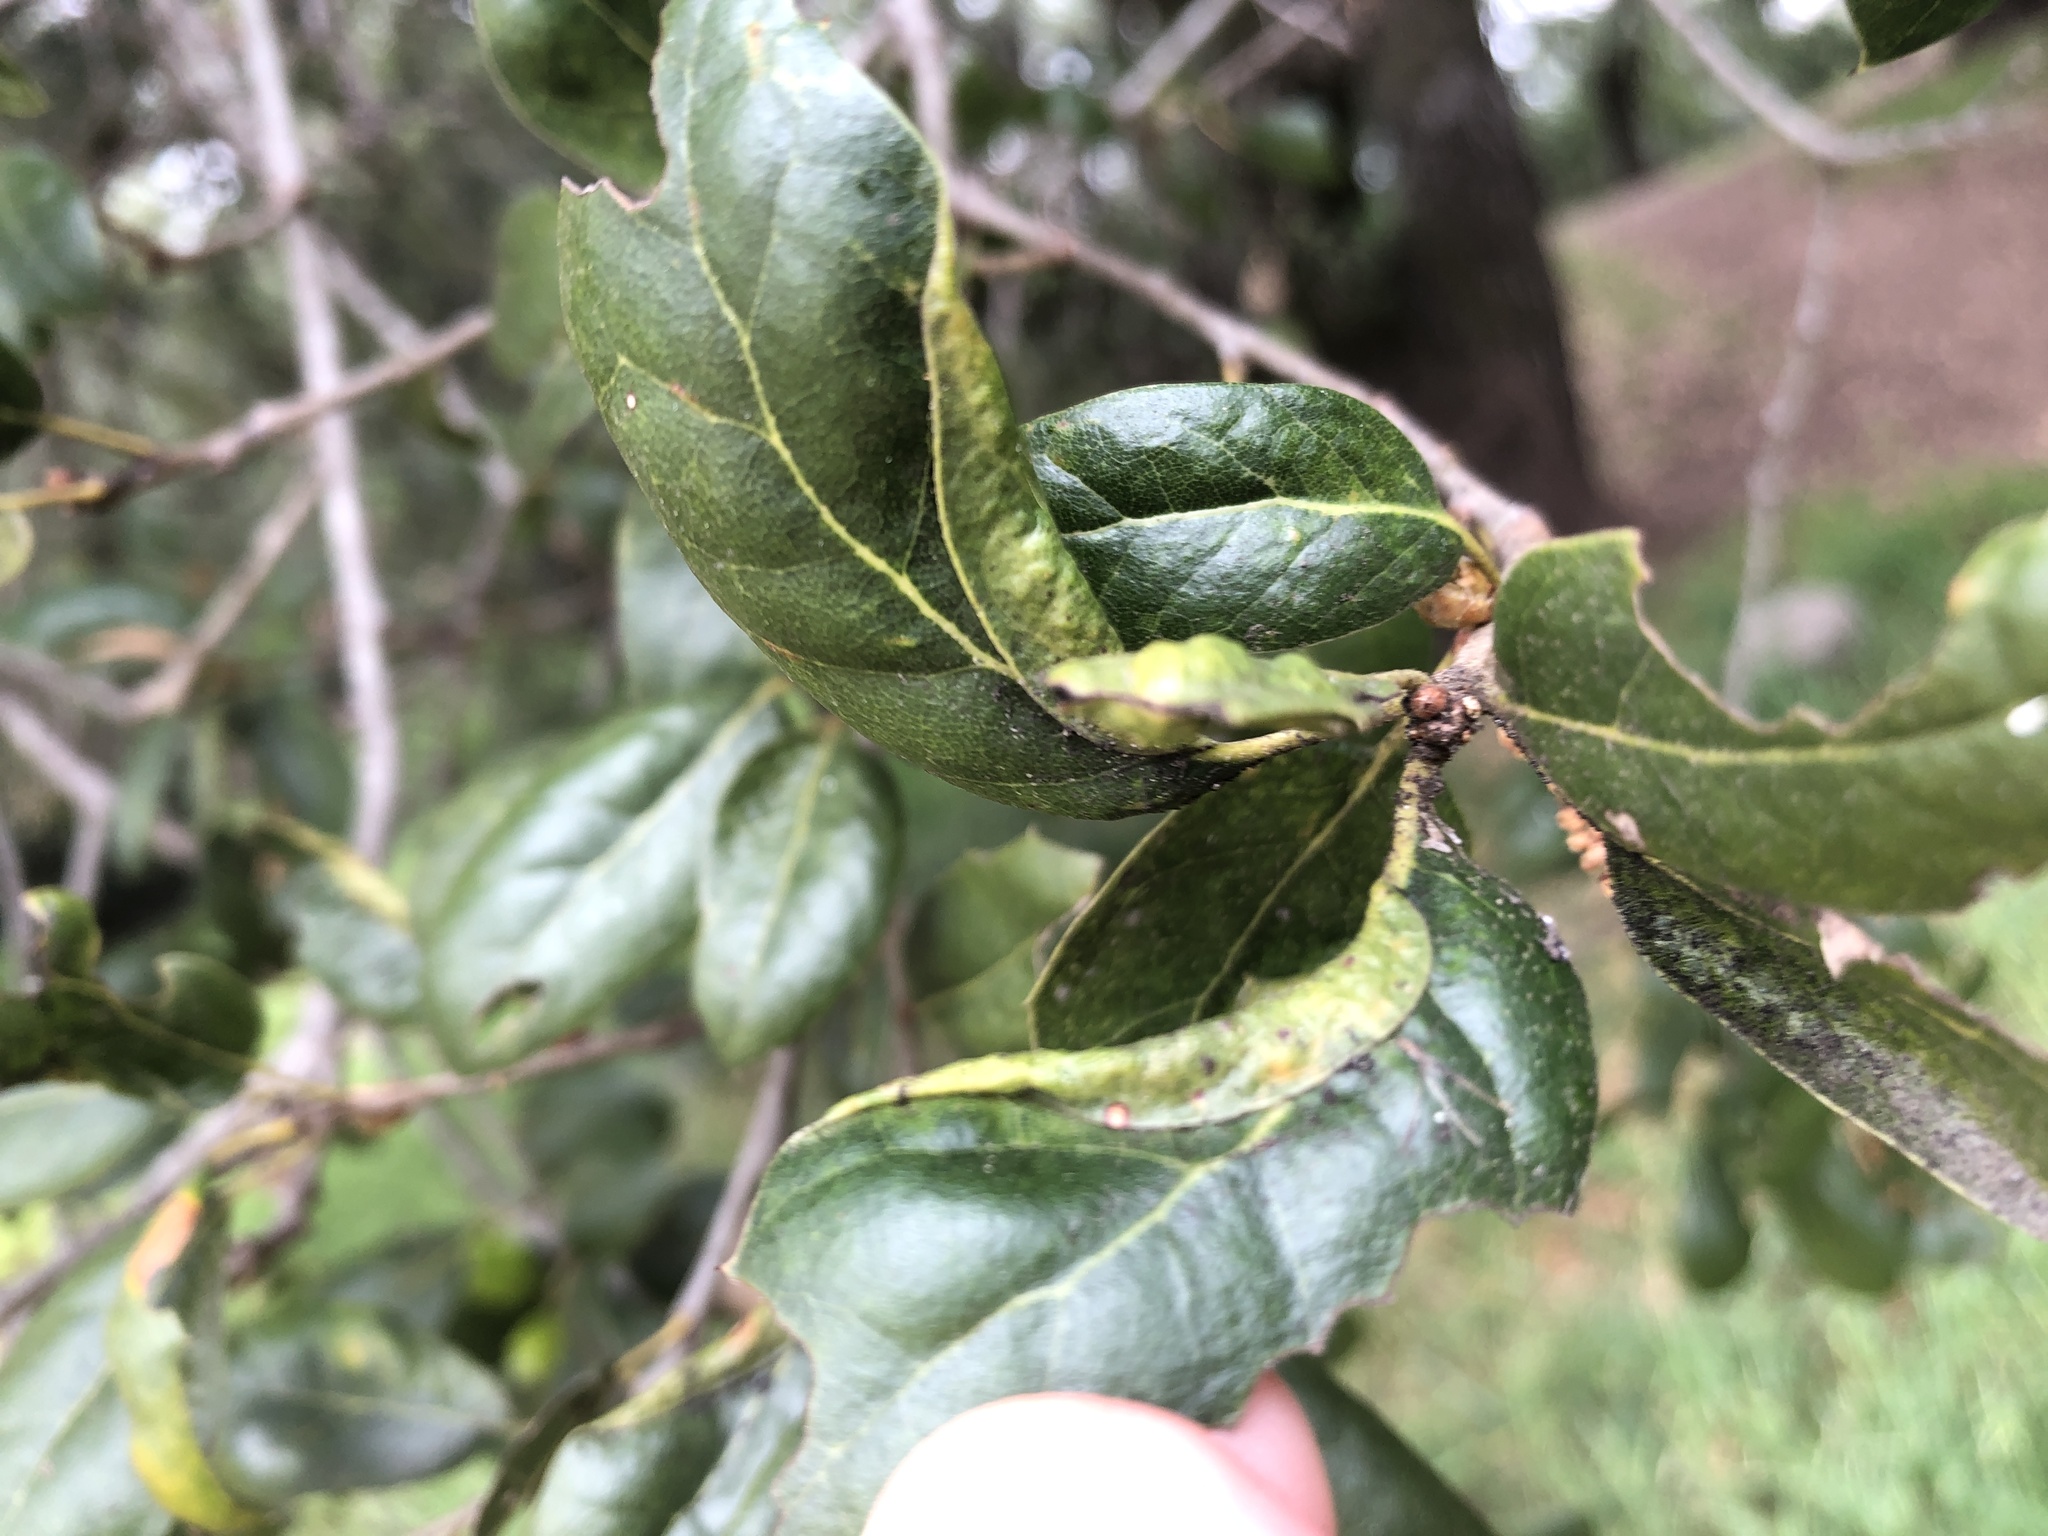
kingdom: Plantae
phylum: Tracheophyta
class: Magnoliopsida
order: Fagales
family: Fagaceae
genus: Quercus
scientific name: Quercus agrifolia
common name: California live oak
